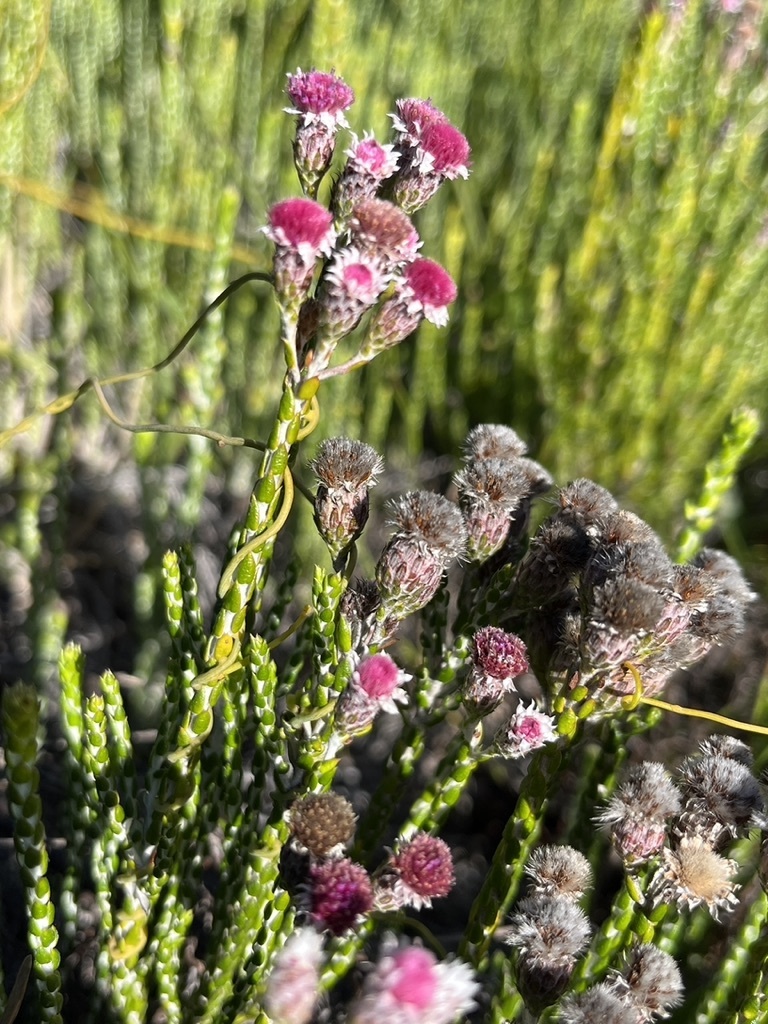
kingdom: Plantae
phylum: Tracheophyta
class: Magnoliopsida
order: Asterales
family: Asteraceae
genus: Lachnospermum
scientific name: Lachnospermum imbricatum
